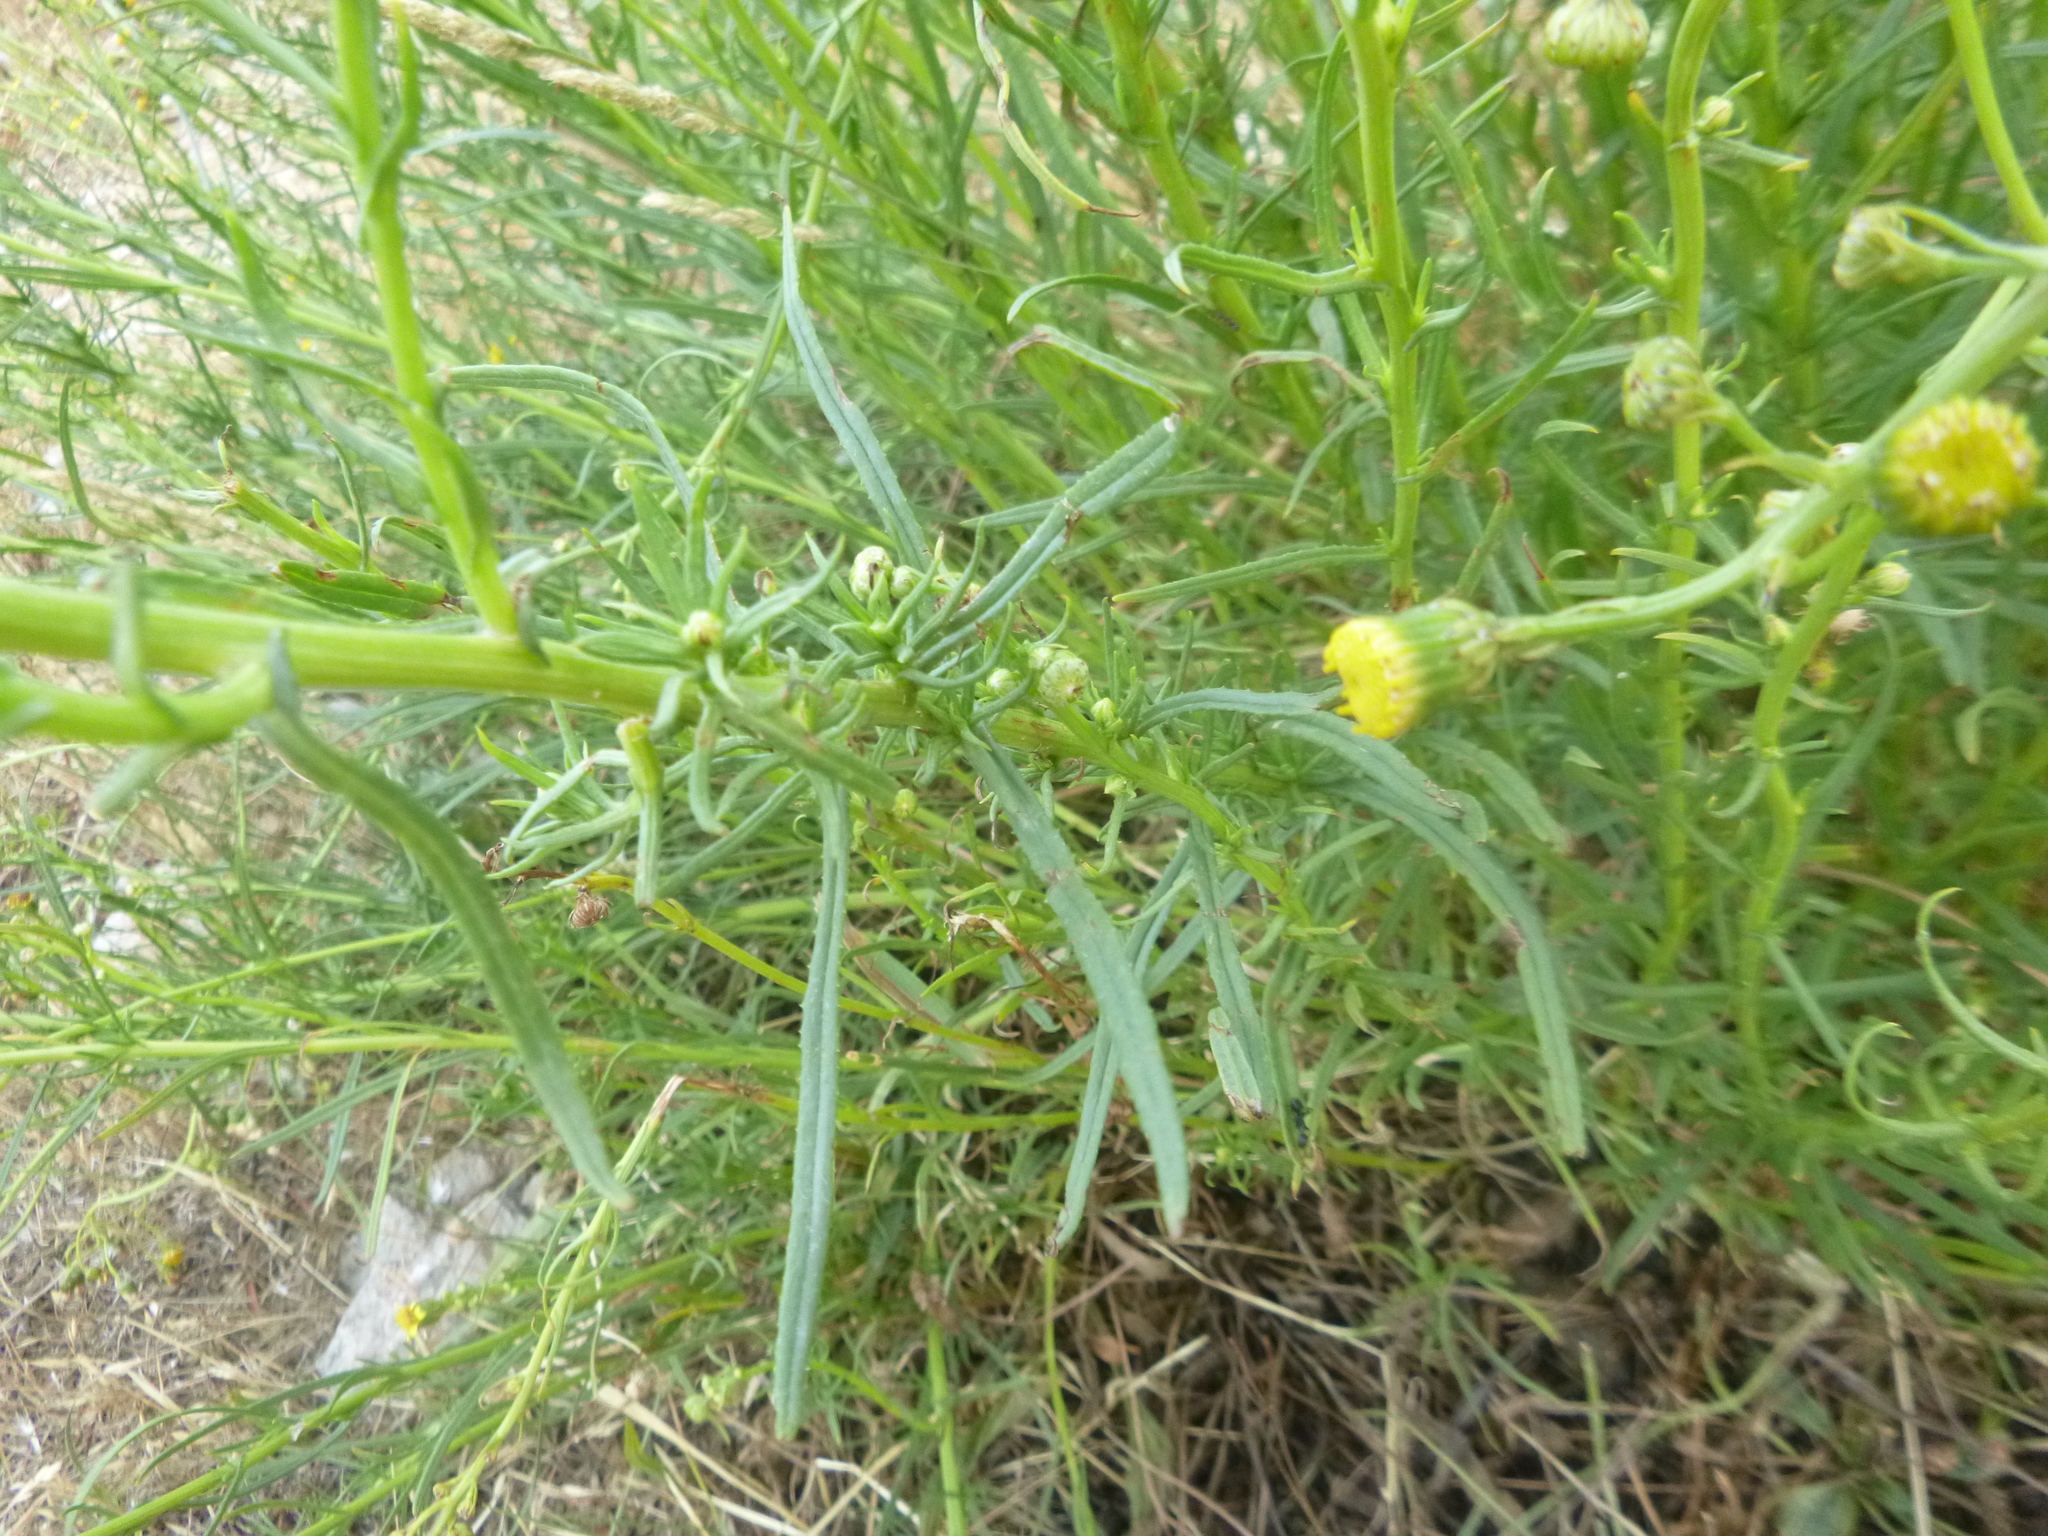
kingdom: Plantae
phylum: Tracheophyta
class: Magnoliopsida
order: Asterales
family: Asteraceae
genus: Senecio
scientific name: Senecio inaequidens
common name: Narrow-leaved ragwort
